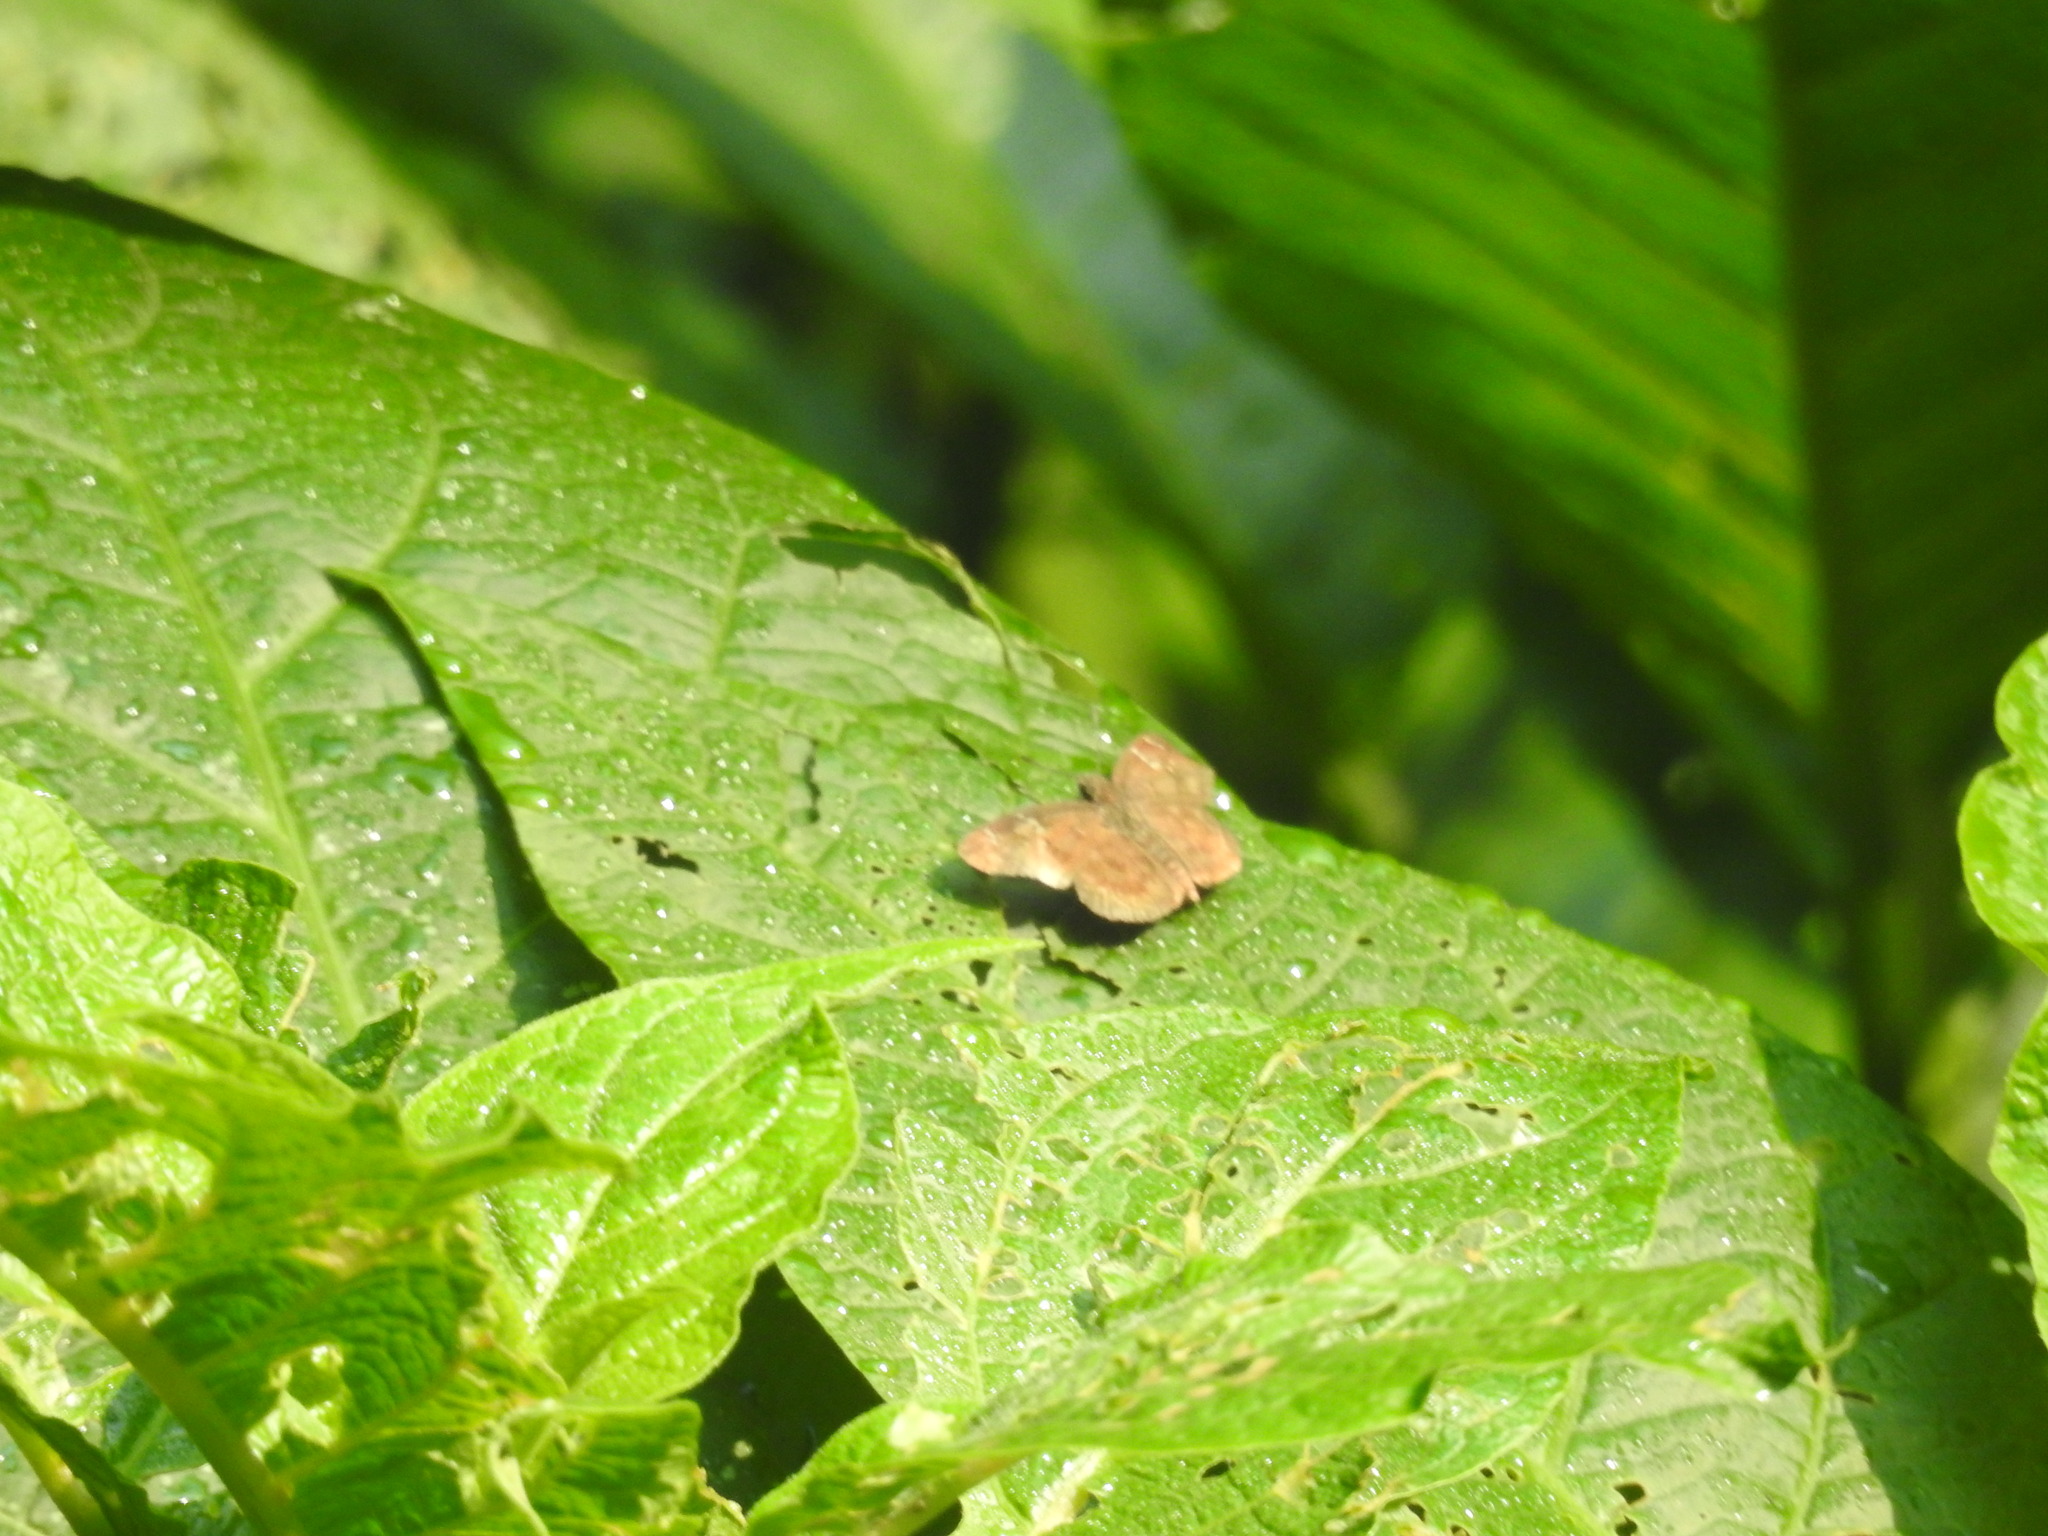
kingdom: Animalia
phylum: Arthropoda
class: Insecta
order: Lepidoptera
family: Hesperiidae
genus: Sarangesa
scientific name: Sarangesa dasahara
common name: Common small flat
